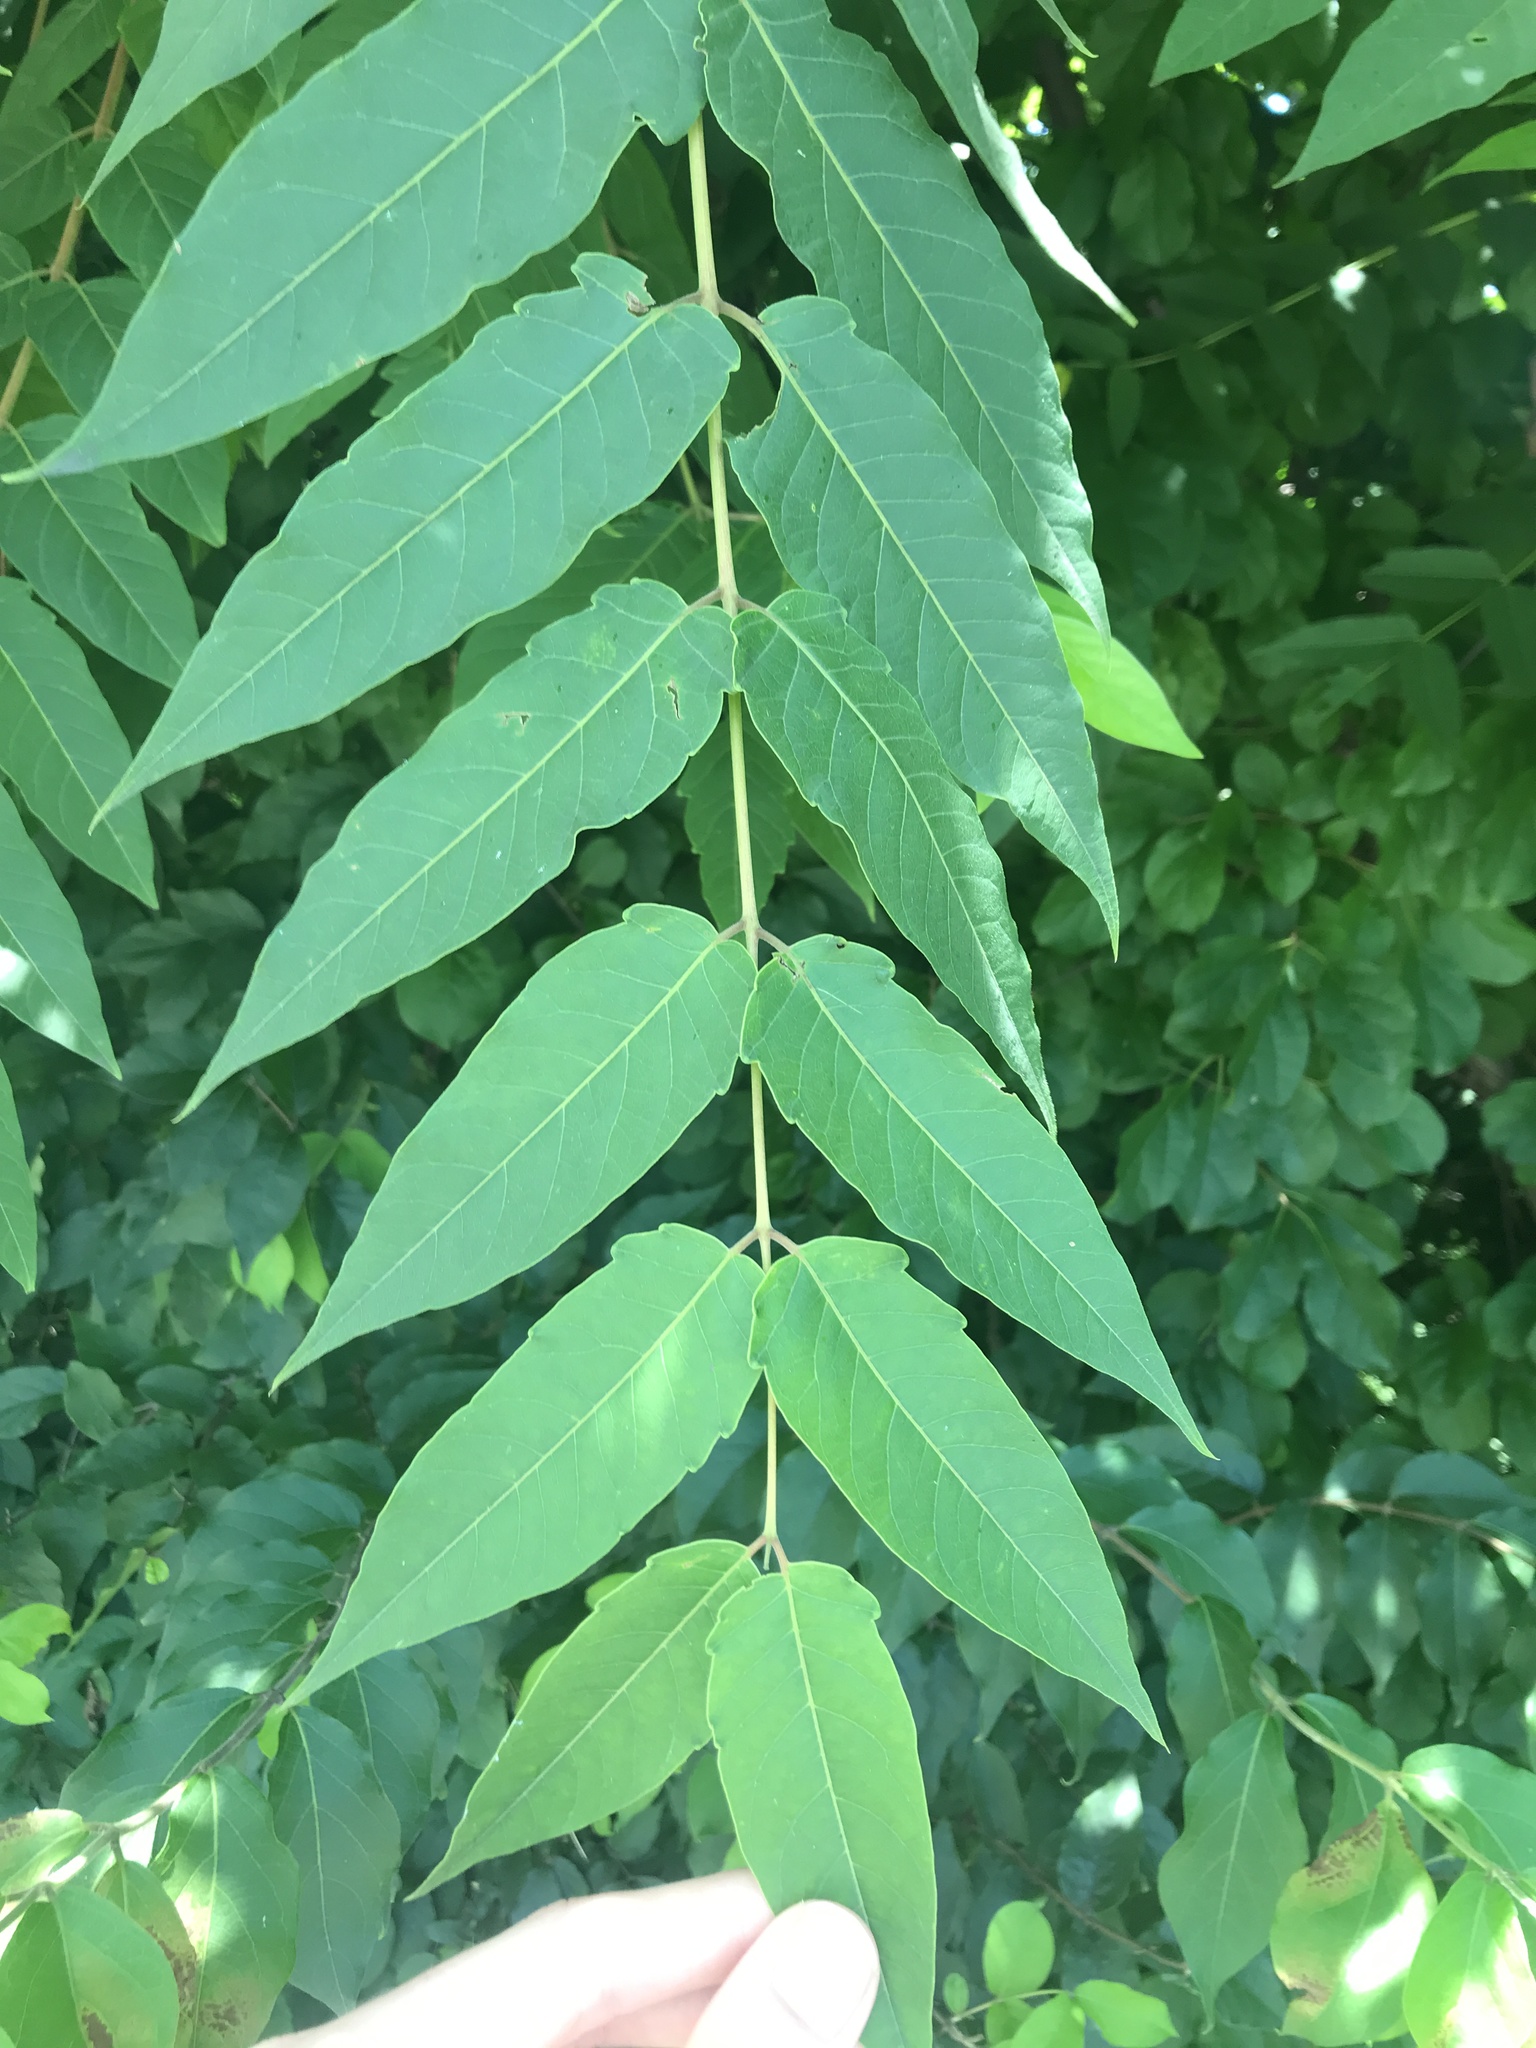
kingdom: Plantae
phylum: Tracheophyta
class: Magnoliopsida
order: Sapindales
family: Simaroubaceae
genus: Ailanthus
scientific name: Ailanthus altissima
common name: Tree-of-heaven
